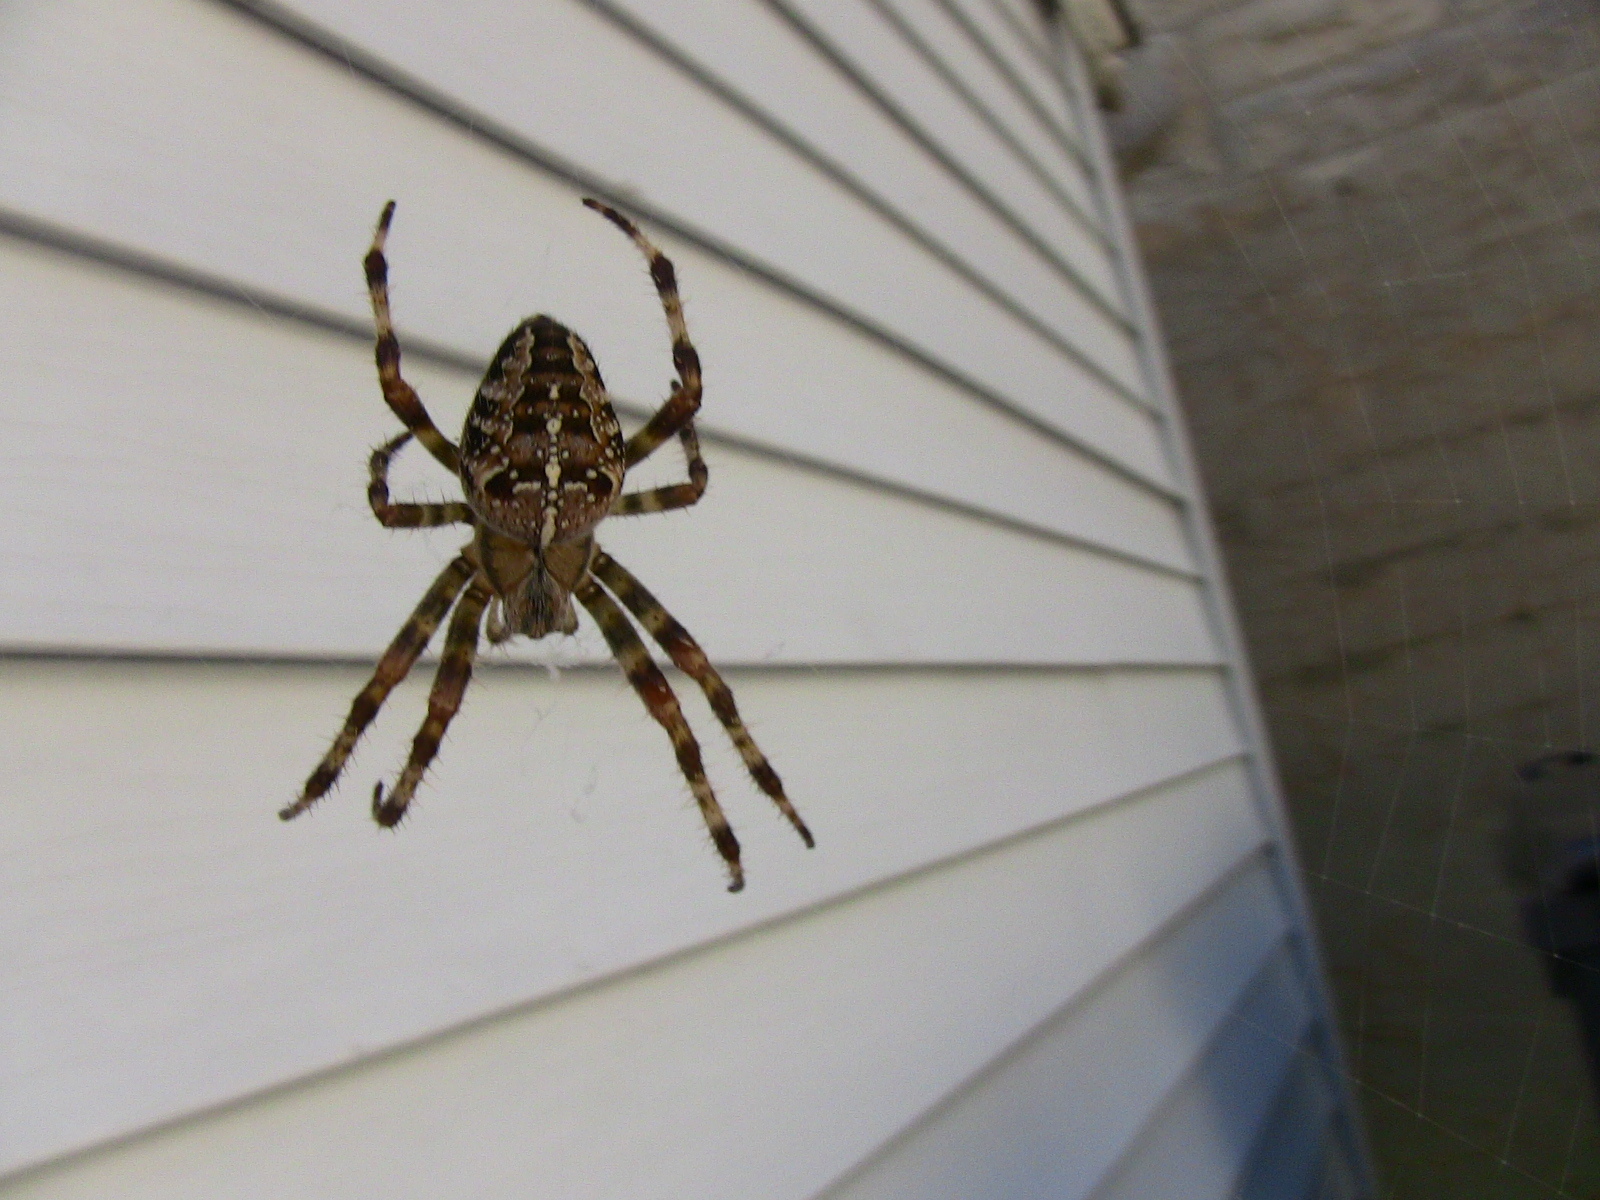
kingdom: Animalia
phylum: Arthropoda
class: Arachnida
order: Araneae
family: Araneidae
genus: Araneus
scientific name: Araneus diadematus
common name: Cross orbweaver
